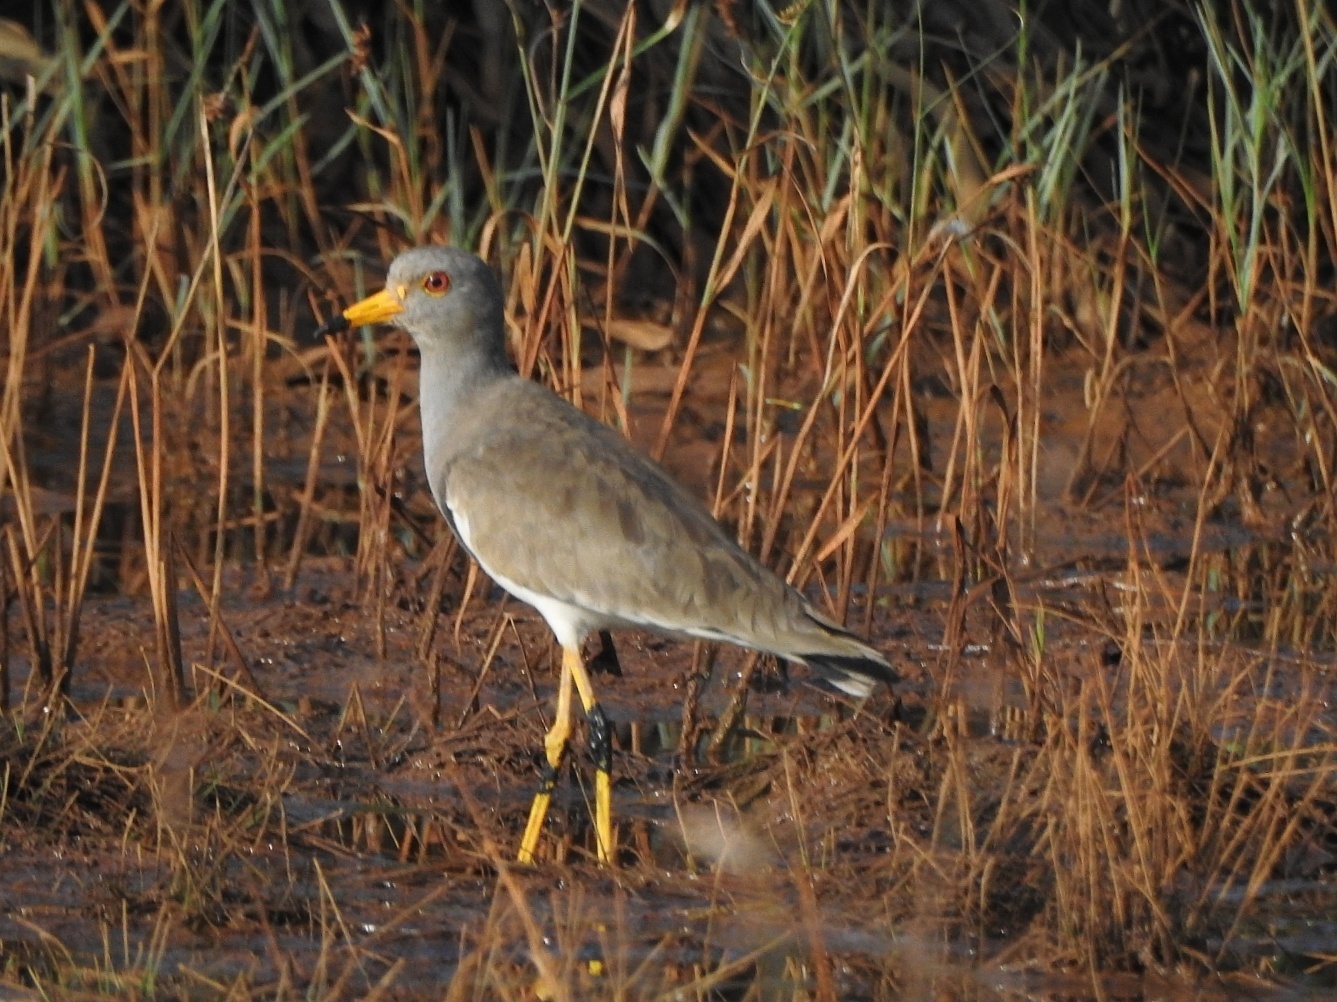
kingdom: Animalia
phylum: Chordata
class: Aves
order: Charadriiformes
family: Charadriidae
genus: Vanellus
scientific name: Vanellus cinereus
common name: Grey-headed lapwing
